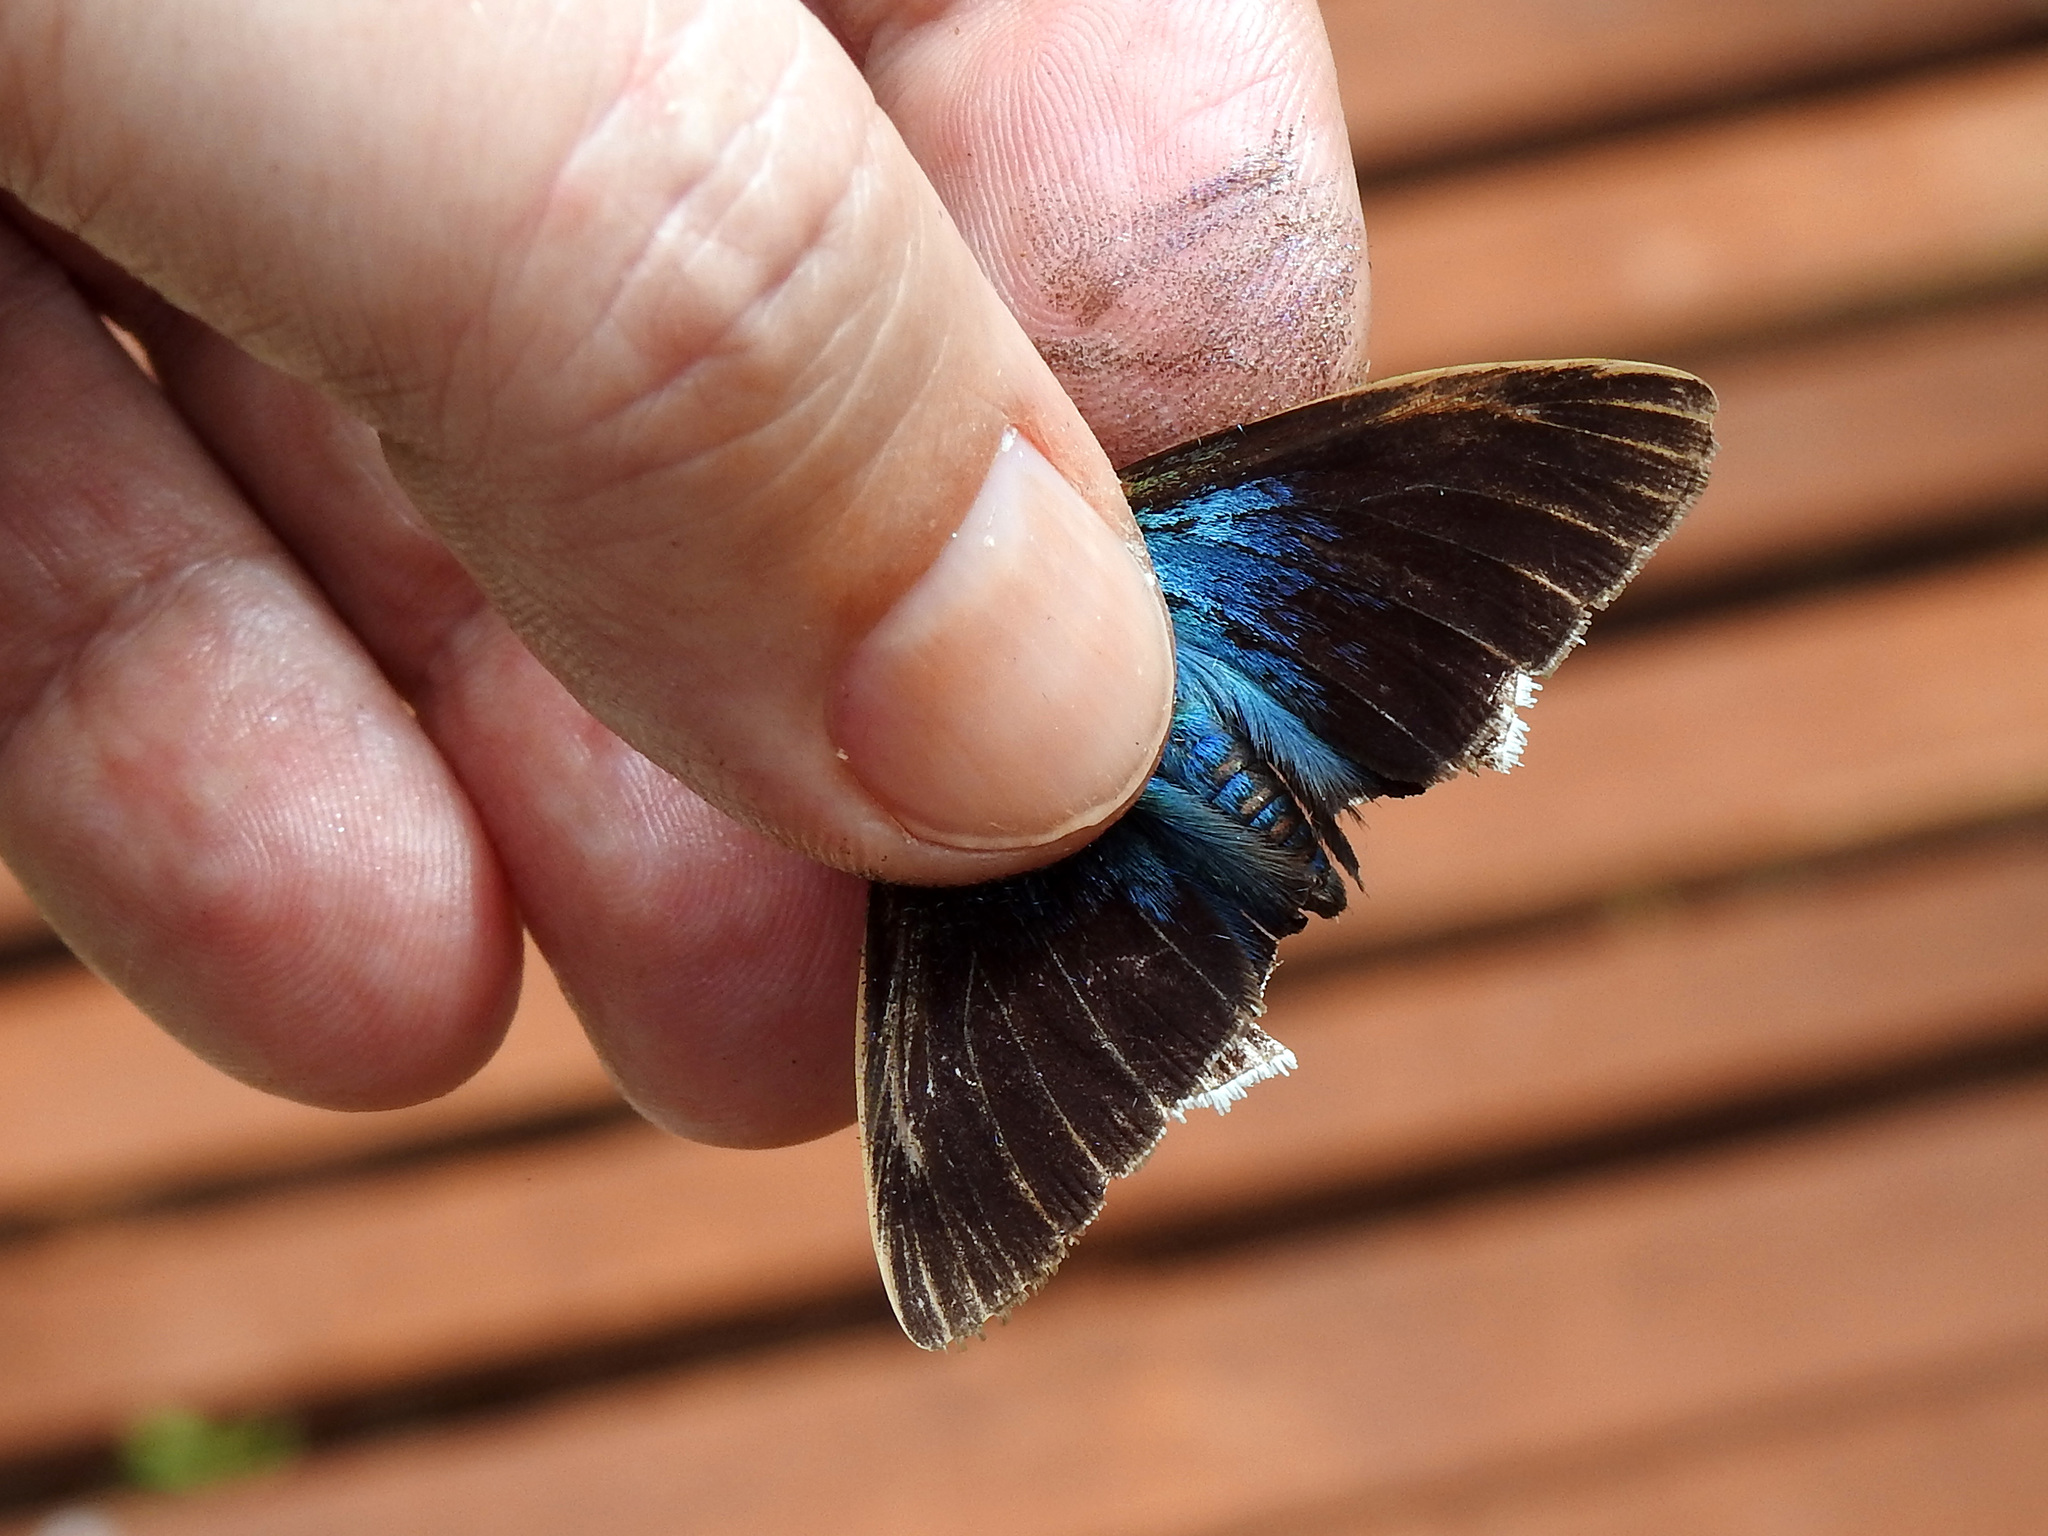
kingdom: Animalia
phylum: Arthropoda
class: Insecta
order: Lepidoptera
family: Hesperiidae
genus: Astraptes
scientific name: Astraptes
